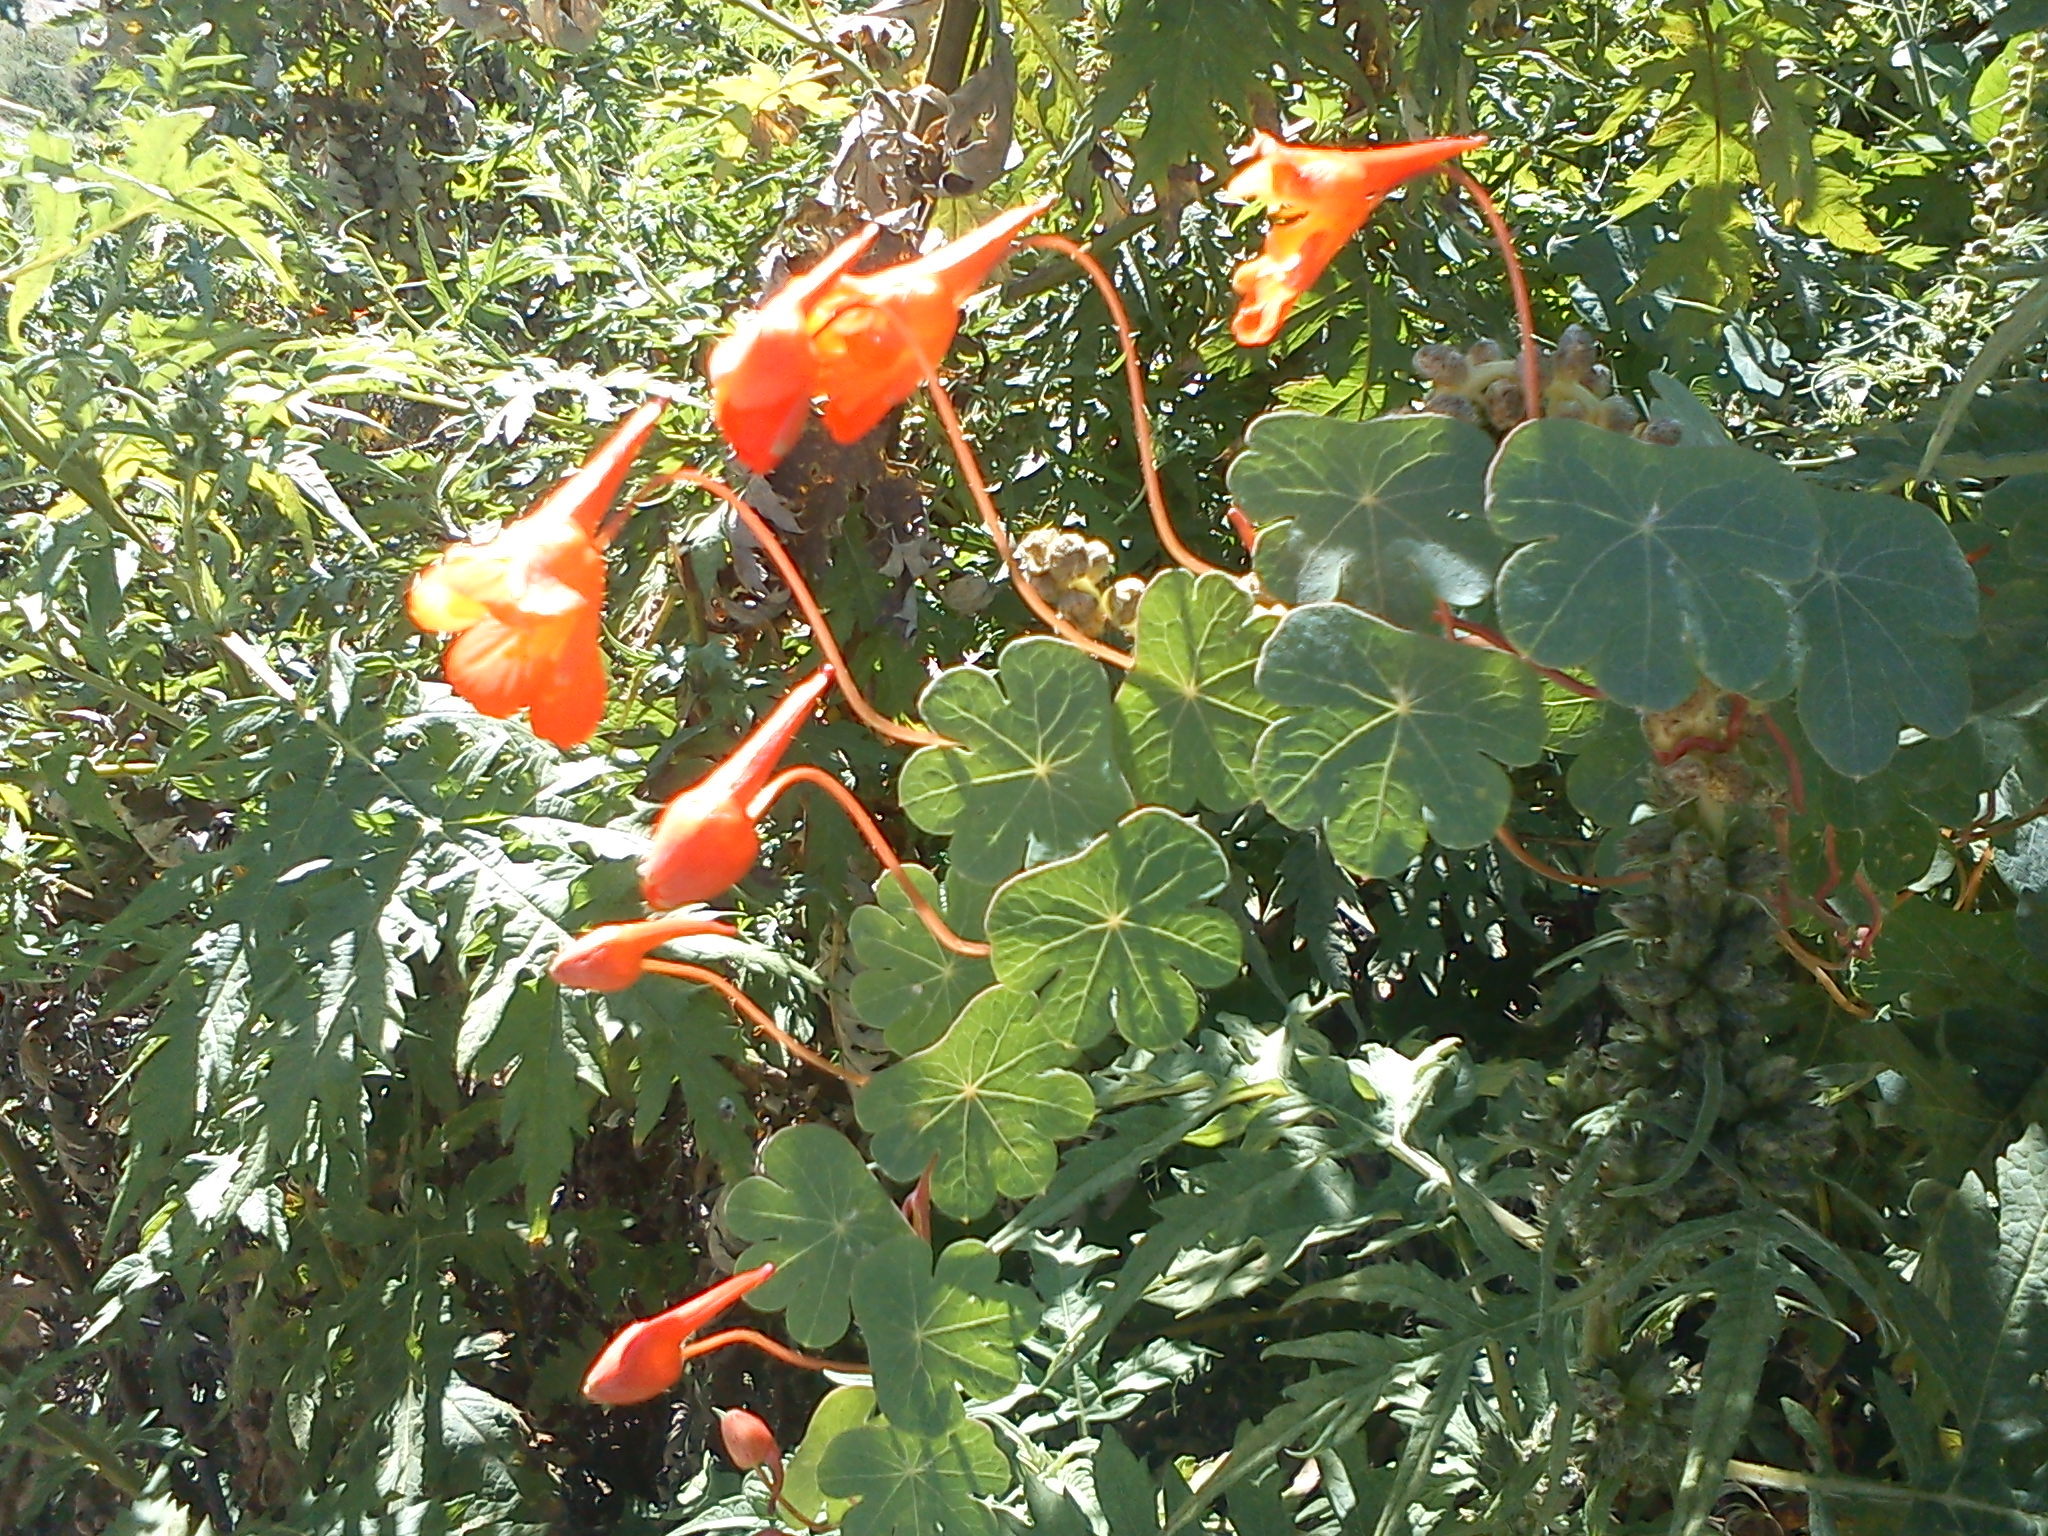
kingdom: Plantae
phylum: Tracheophyta
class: Magnoliopsida
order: Brassicales
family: Tropaeolaceae
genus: Tropaeolum
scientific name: Tropaeolum tuberosum
